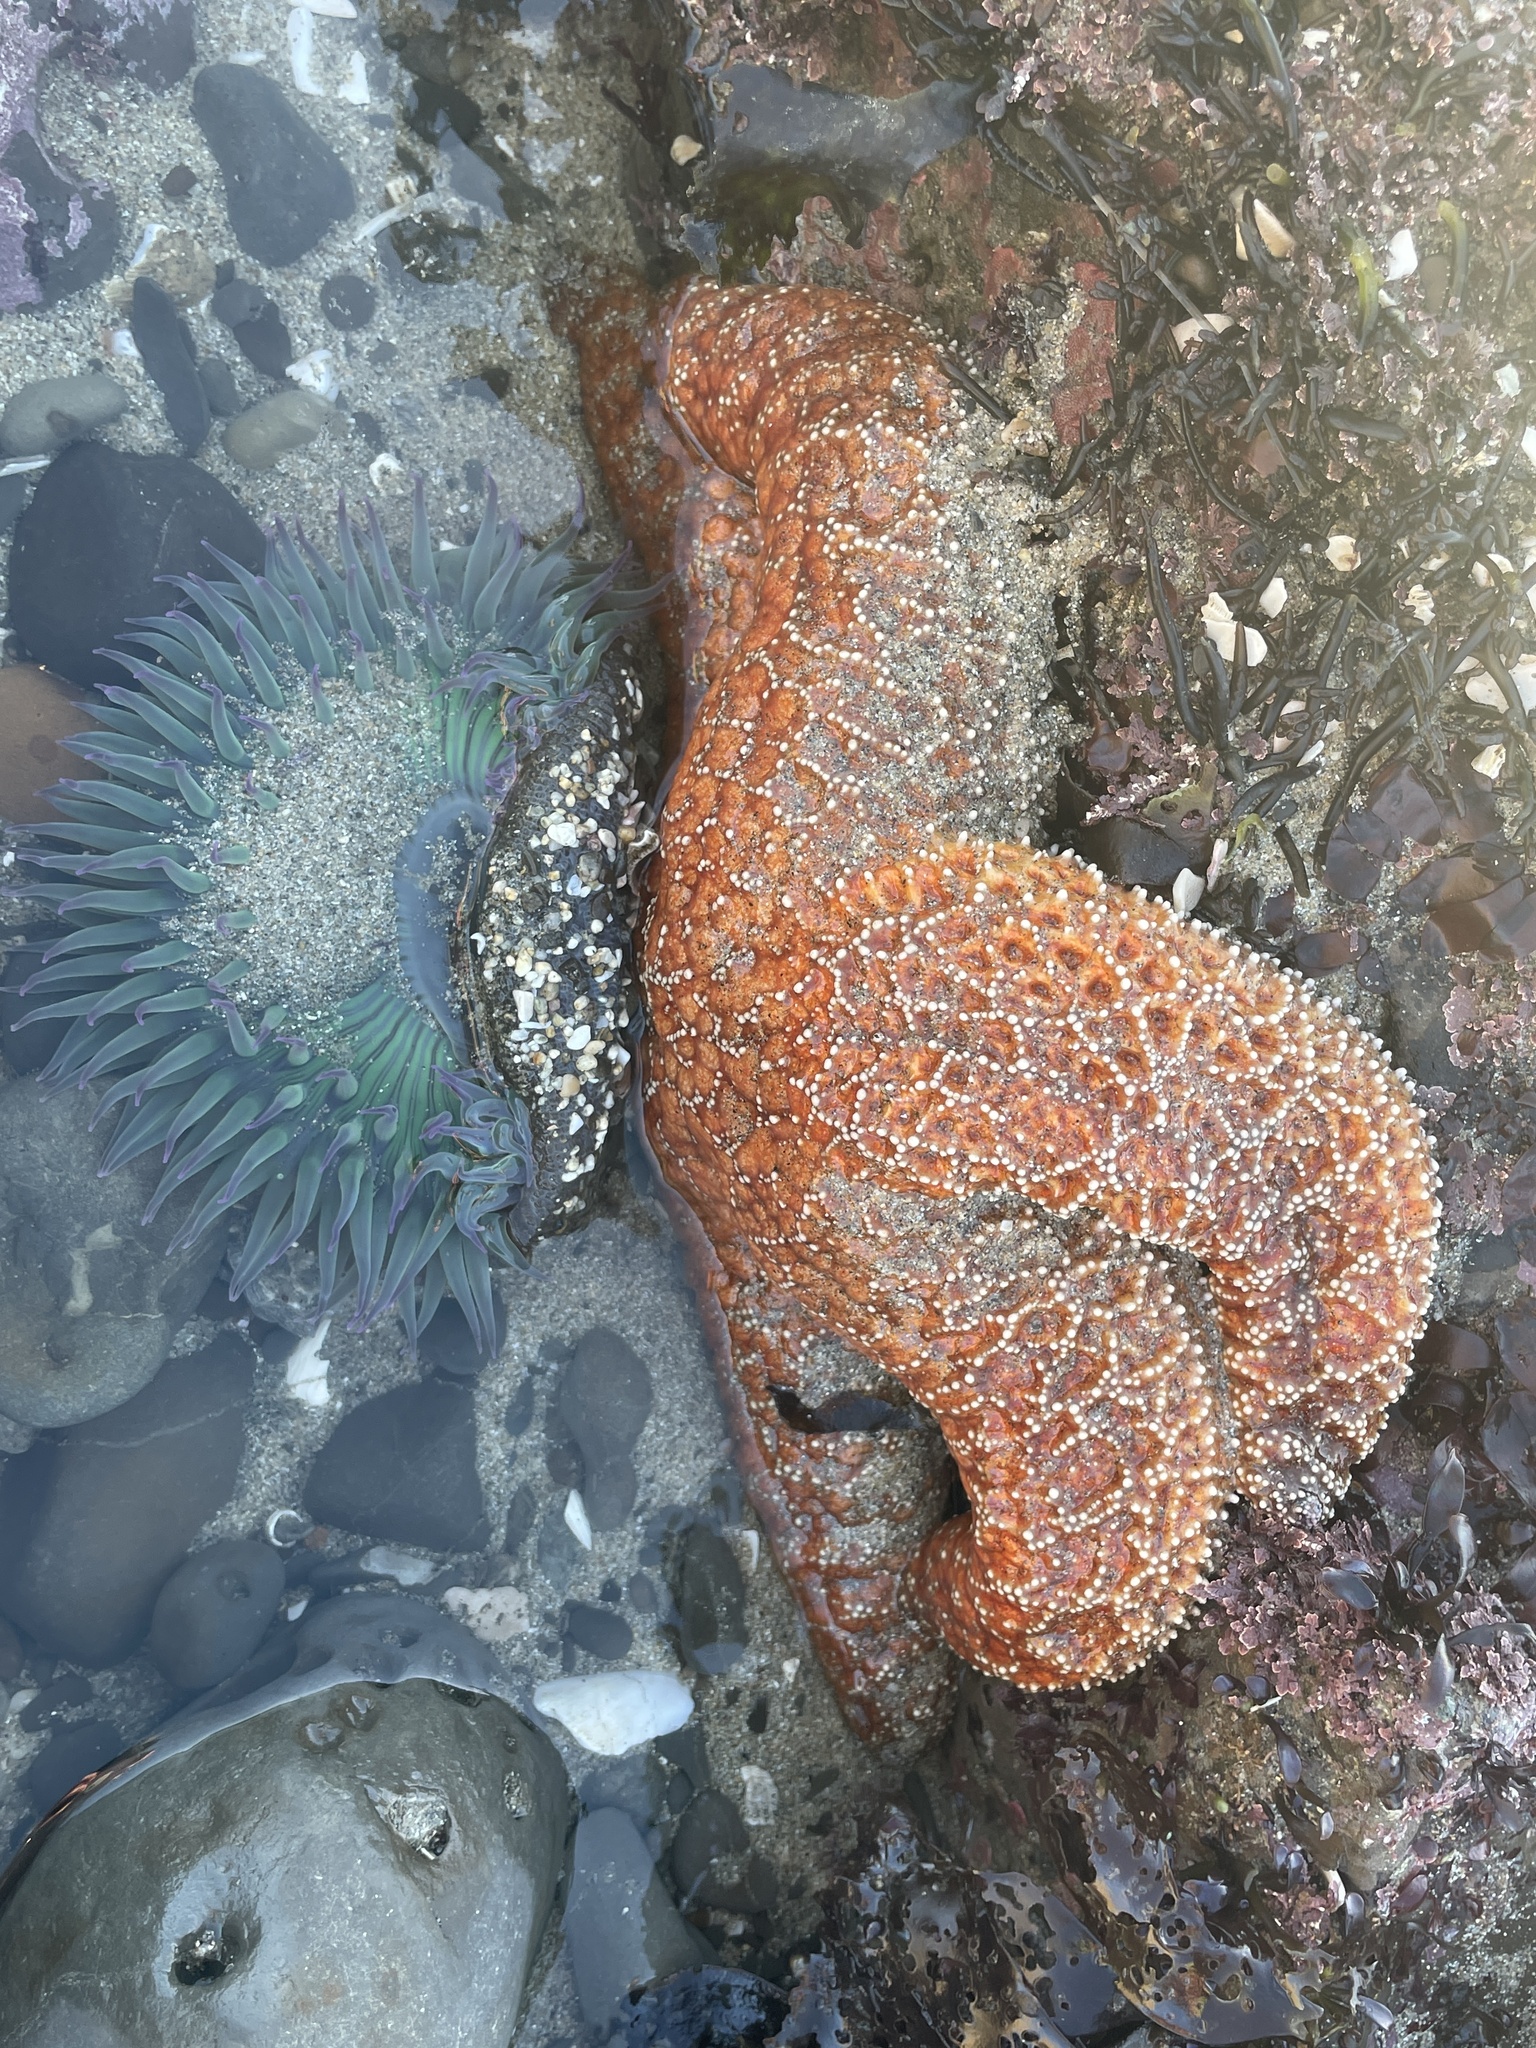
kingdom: Animalia
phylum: Echinodermata
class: Asteroidea
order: Forcipulatida
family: Asteriidae
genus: Pisaster
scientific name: Pisaster ochraceus
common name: Ochre stars
